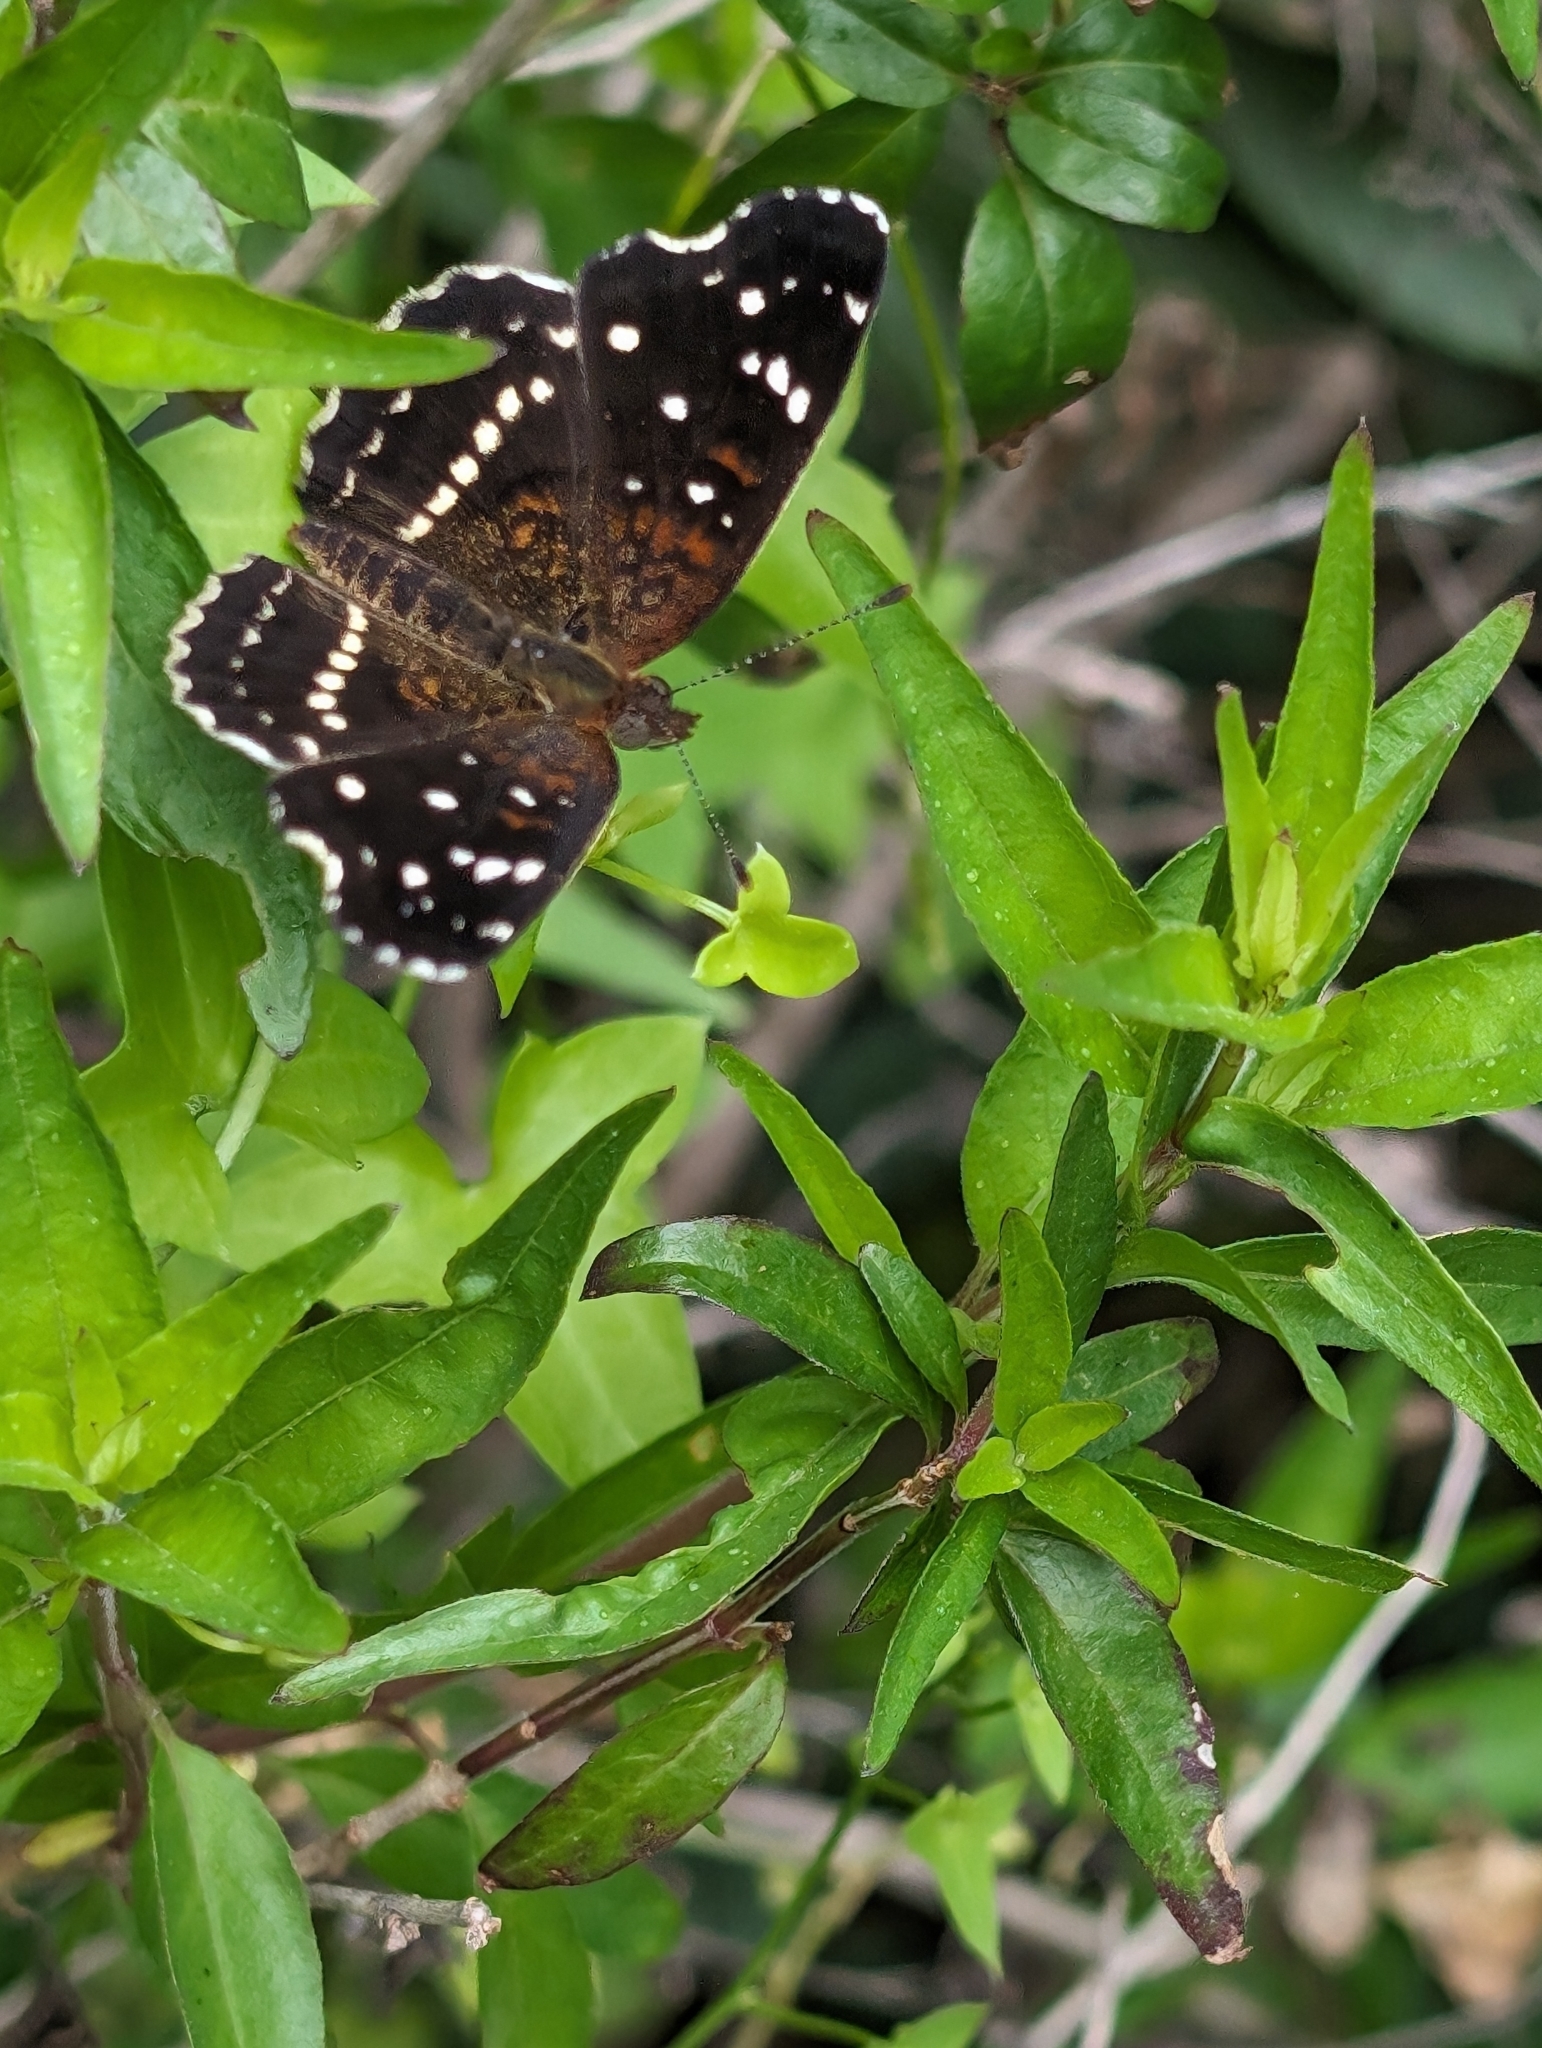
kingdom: Animalia
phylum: Arthropoda
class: Insecta
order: Lepidoptera
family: Nymphalidae
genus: Anthanassa
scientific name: Anthanassa texana
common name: Texan crescent
